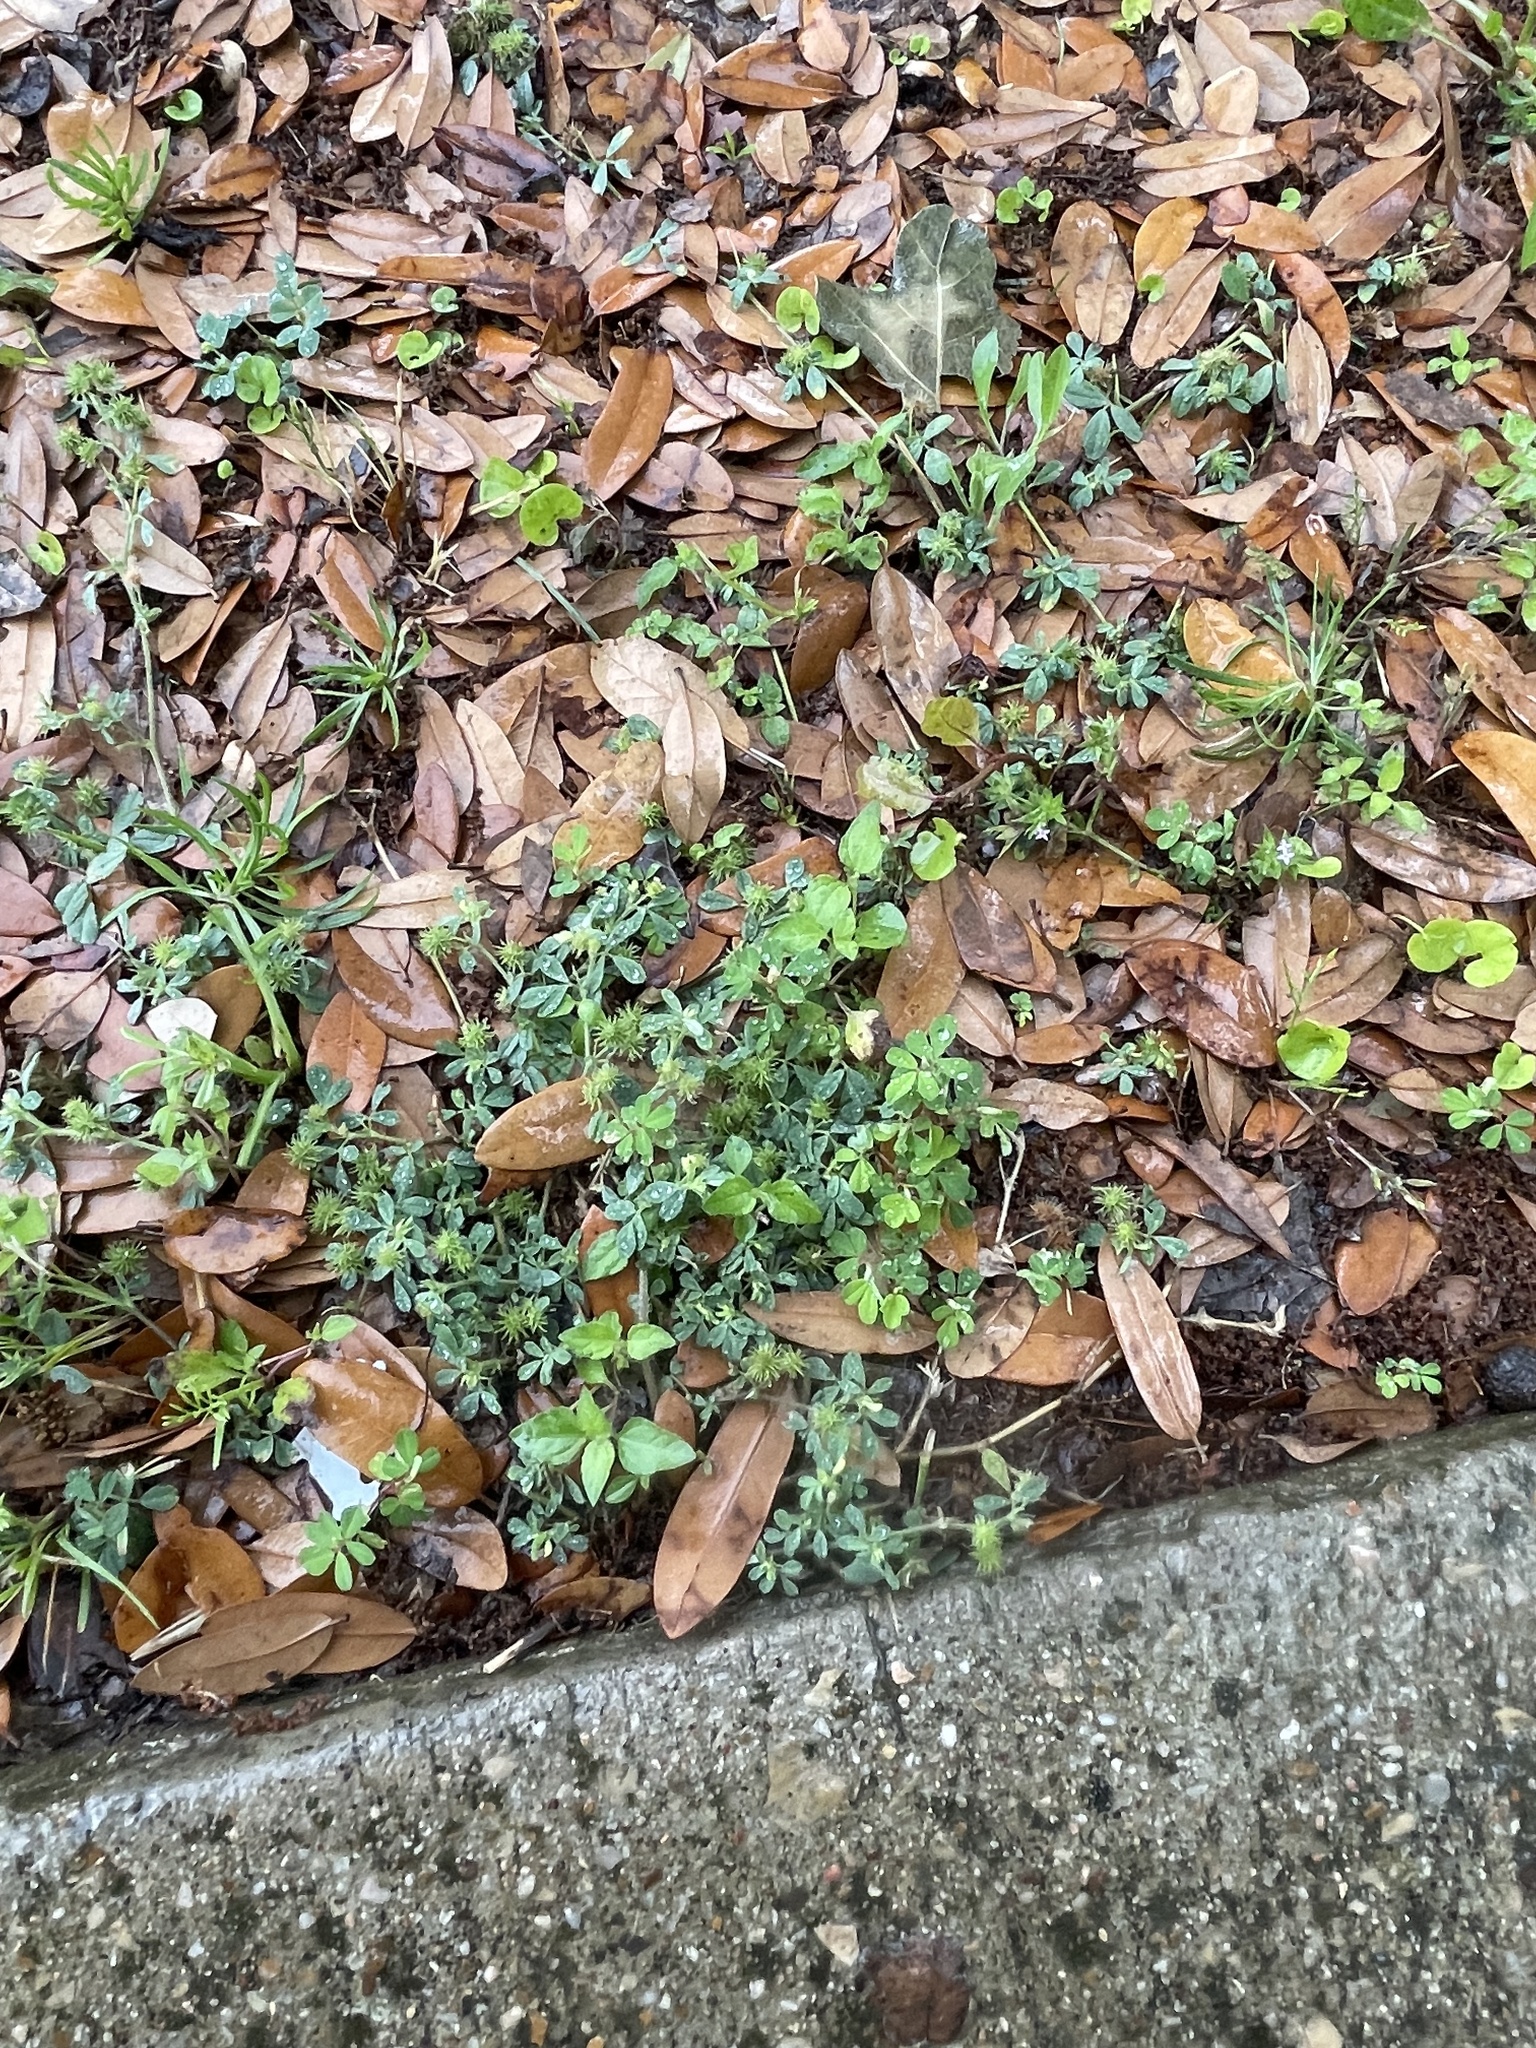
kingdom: Plantae
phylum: Tracheophyta
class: Magnoliopsida
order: Fabales
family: Fabaceae
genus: Medicago
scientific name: Medicago minima
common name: Little bur-clover
